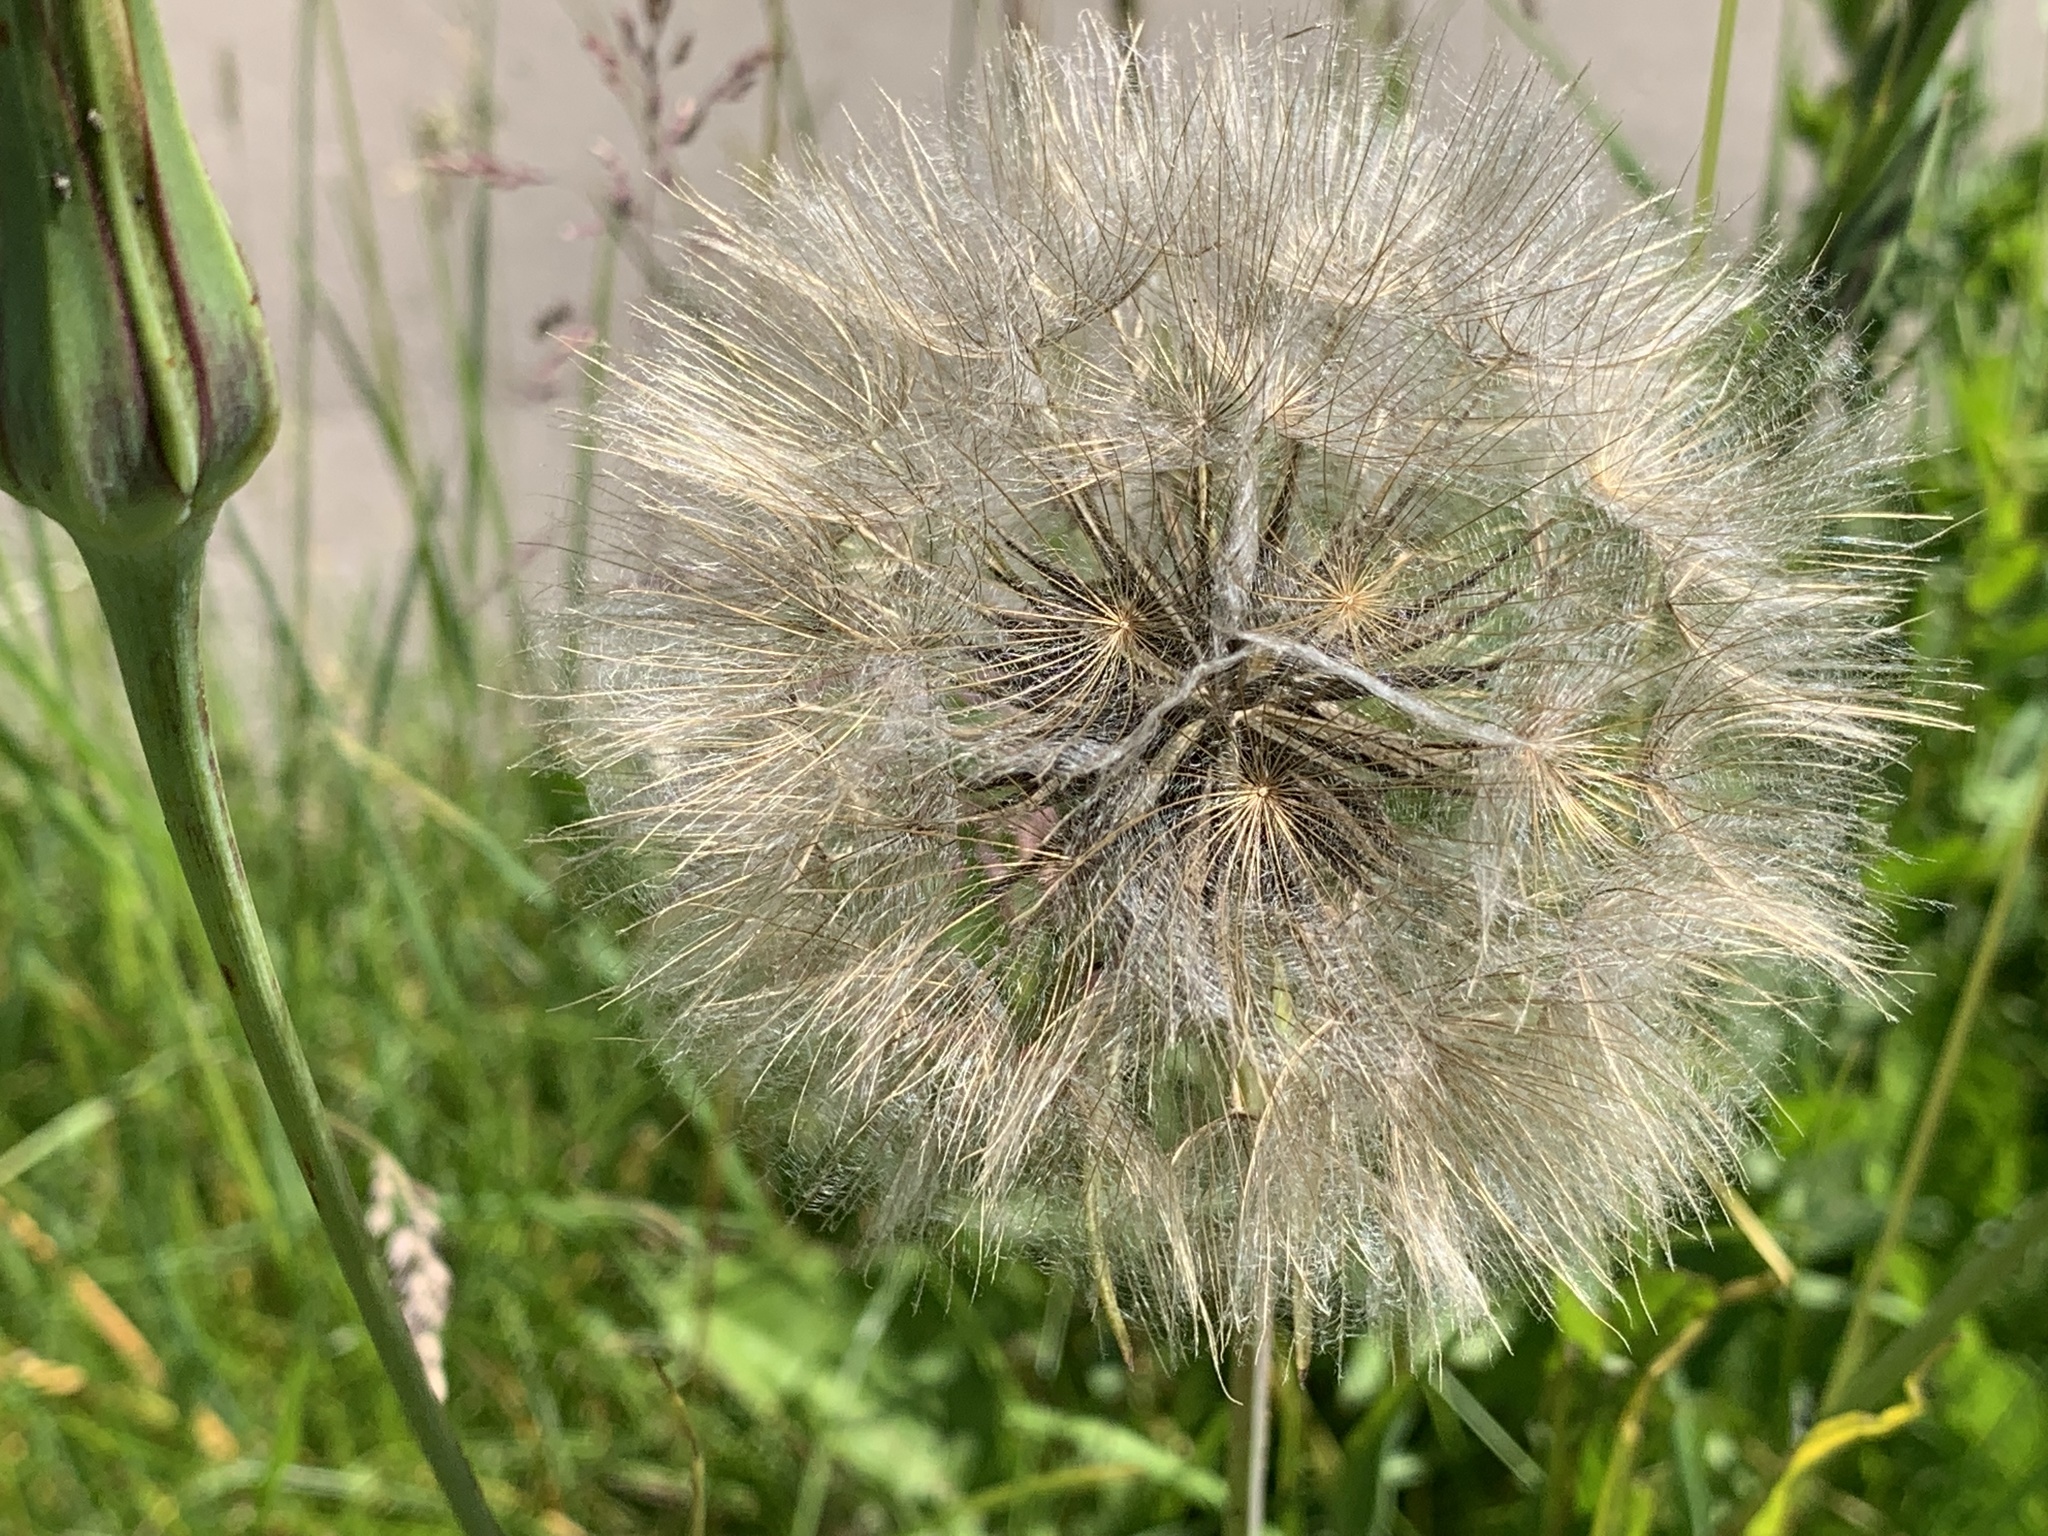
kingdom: Plantae
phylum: Tracheophyta
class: Magnoliopsida
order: Asterales
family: Asteraceae
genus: Tragopogon
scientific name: Tragopogon pratensis
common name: Goat's-beard
